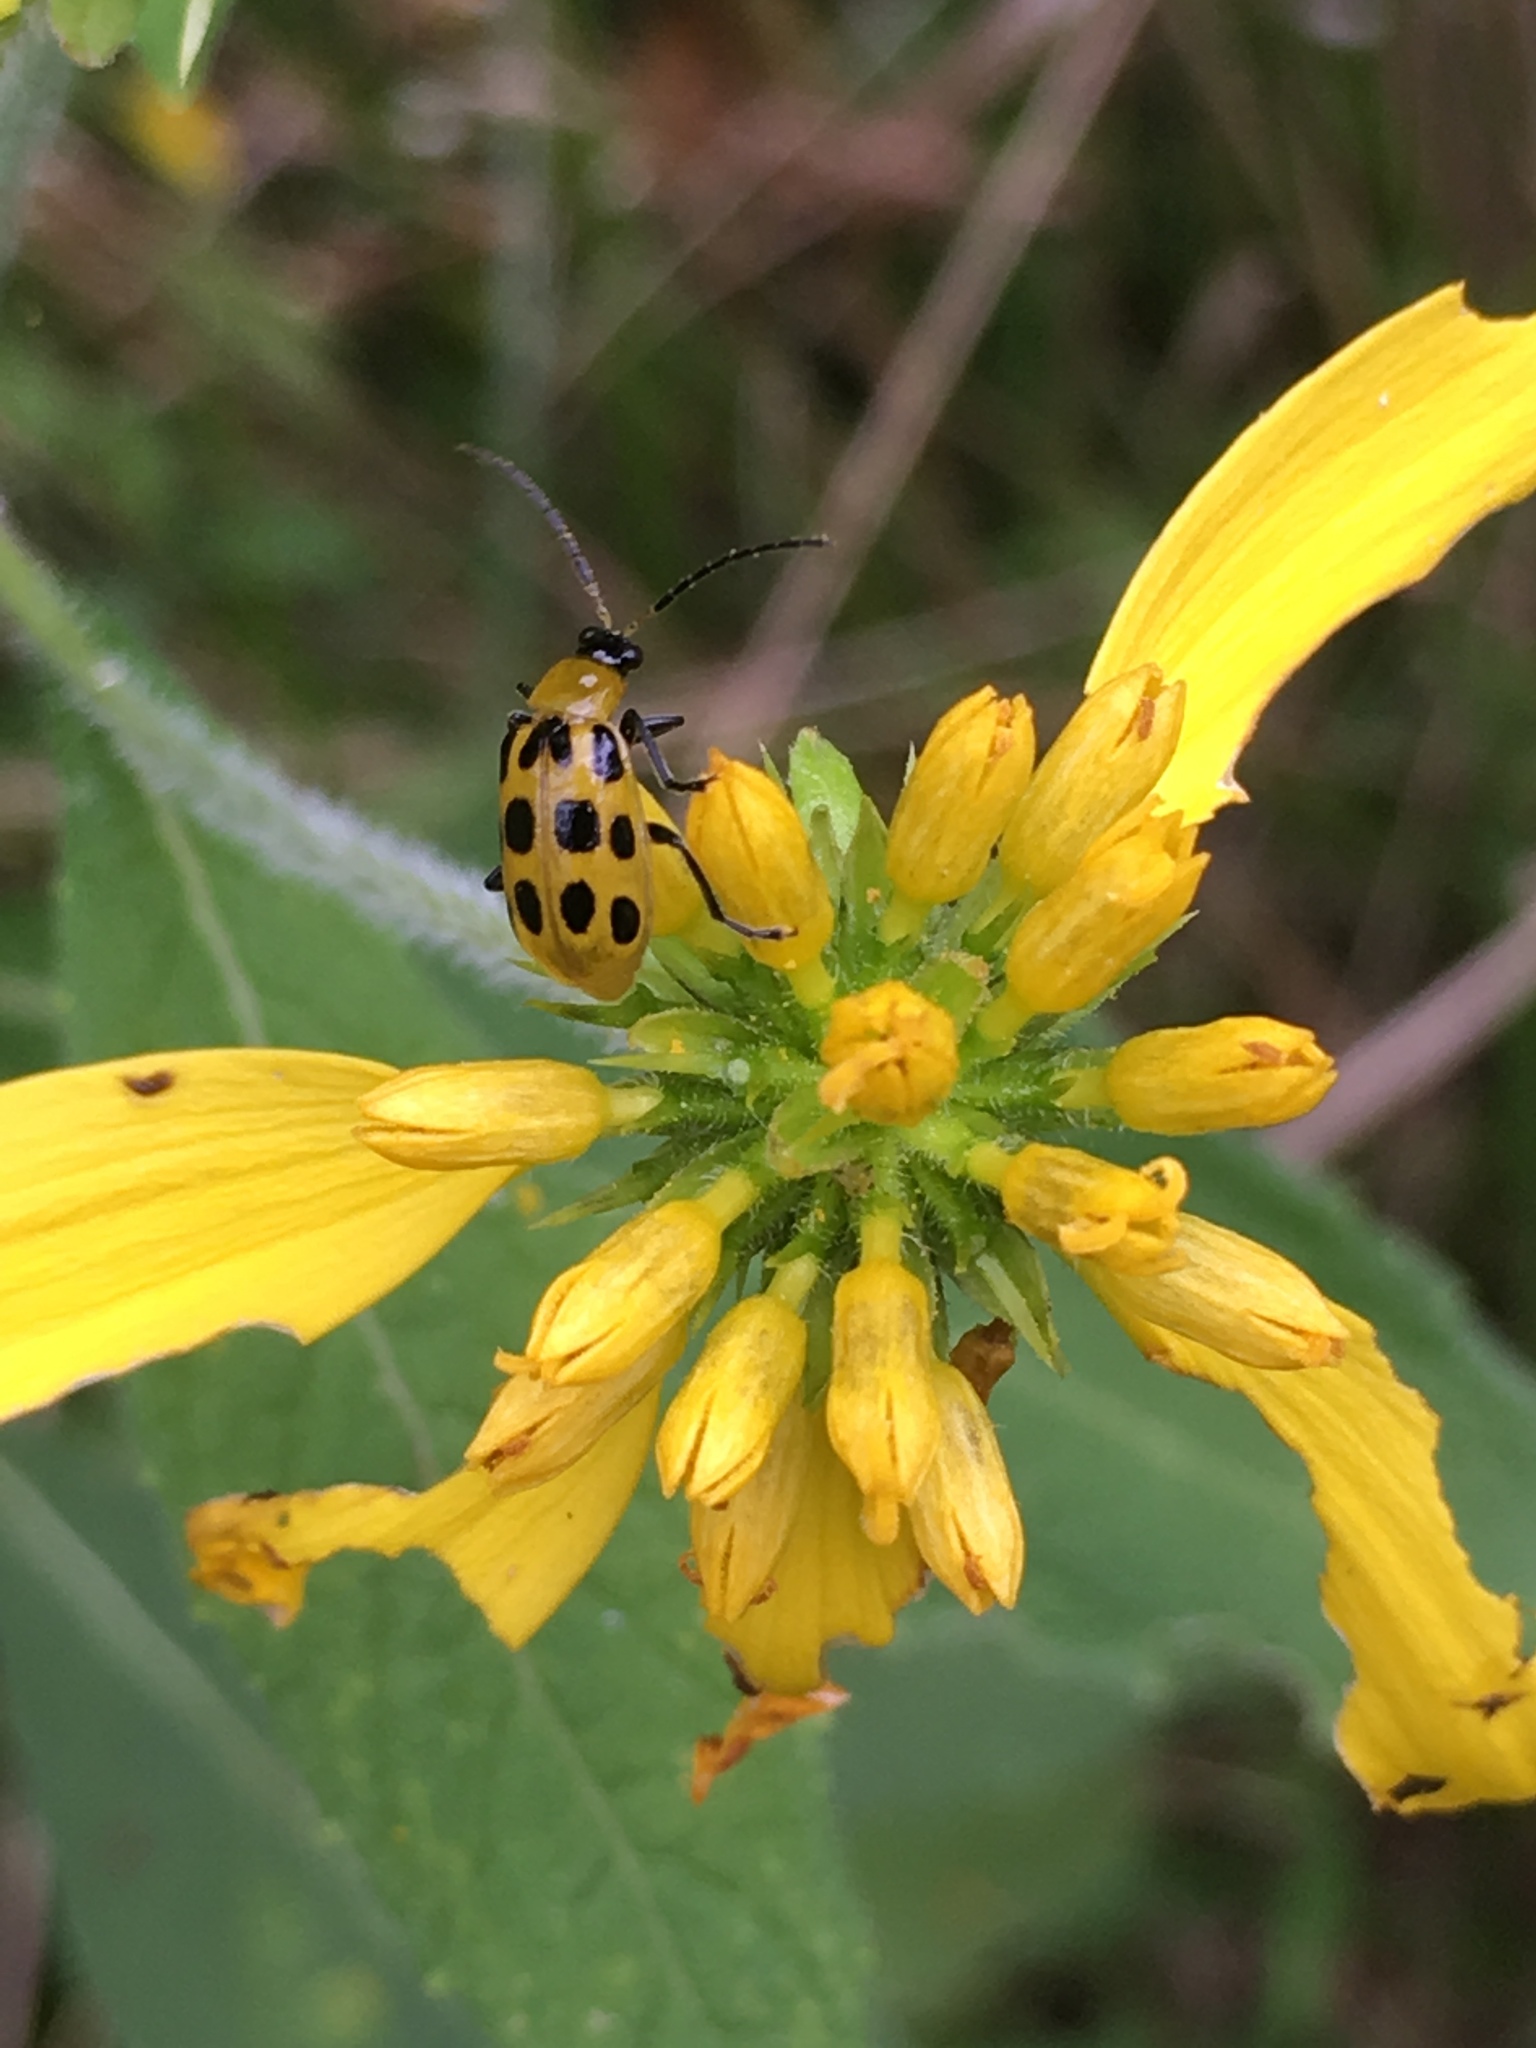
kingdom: Animalia
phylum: Arthropoda
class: Insecta
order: Coleoptera
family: Chrysomelidae
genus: Diabrotica
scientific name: Diabrotica undecimpunctata
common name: Spotted cucumber beetle
